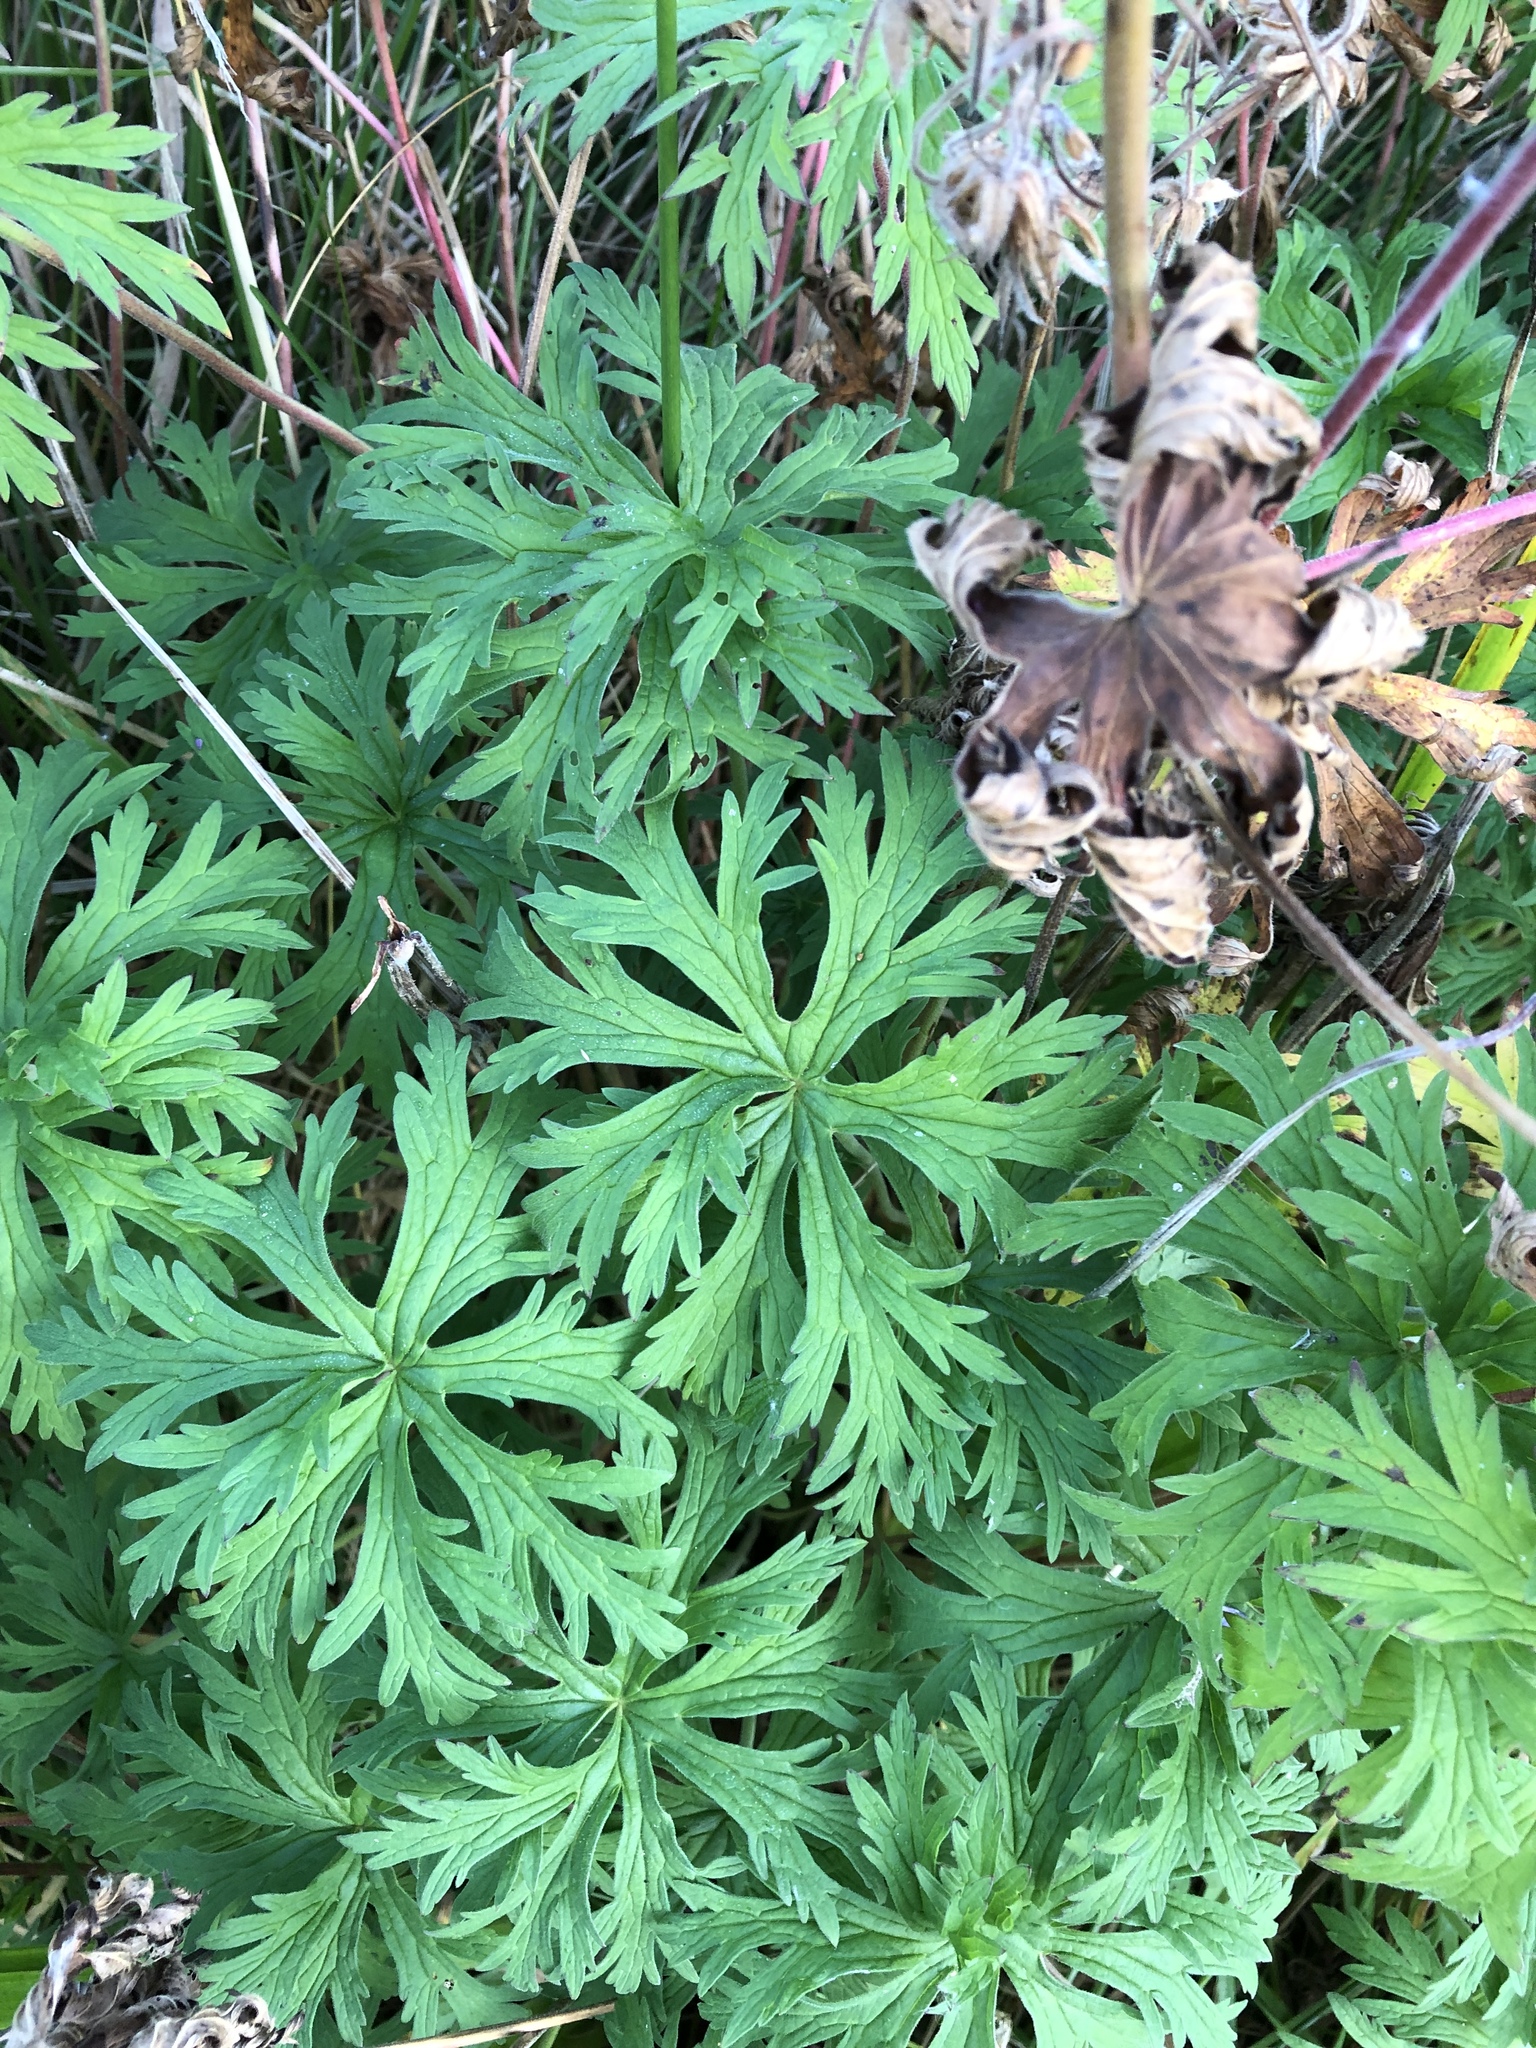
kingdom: Plantae
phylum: Tracheophyta
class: Magnoliopsida
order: Geraniales
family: Geraniaceae
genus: Geranium
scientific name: Geranium pratense
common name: Meadow crane's-bill
